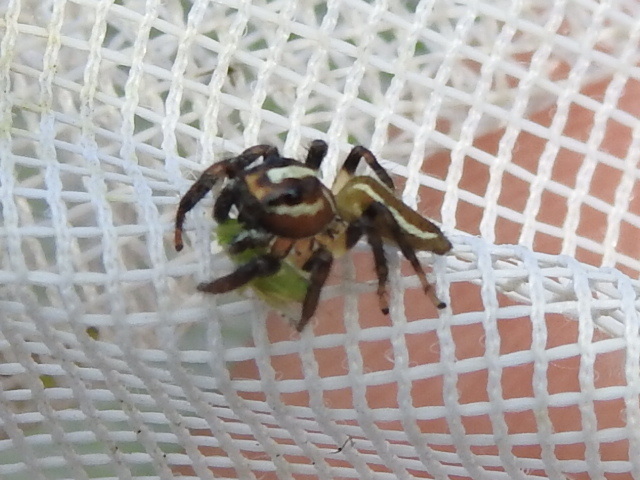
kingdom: Animalia
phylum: Arthropoda
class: Arachnida
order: Araneae
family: Salticidae
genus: Colonus
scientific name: Colonus puerperus
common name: Jumping spiders
